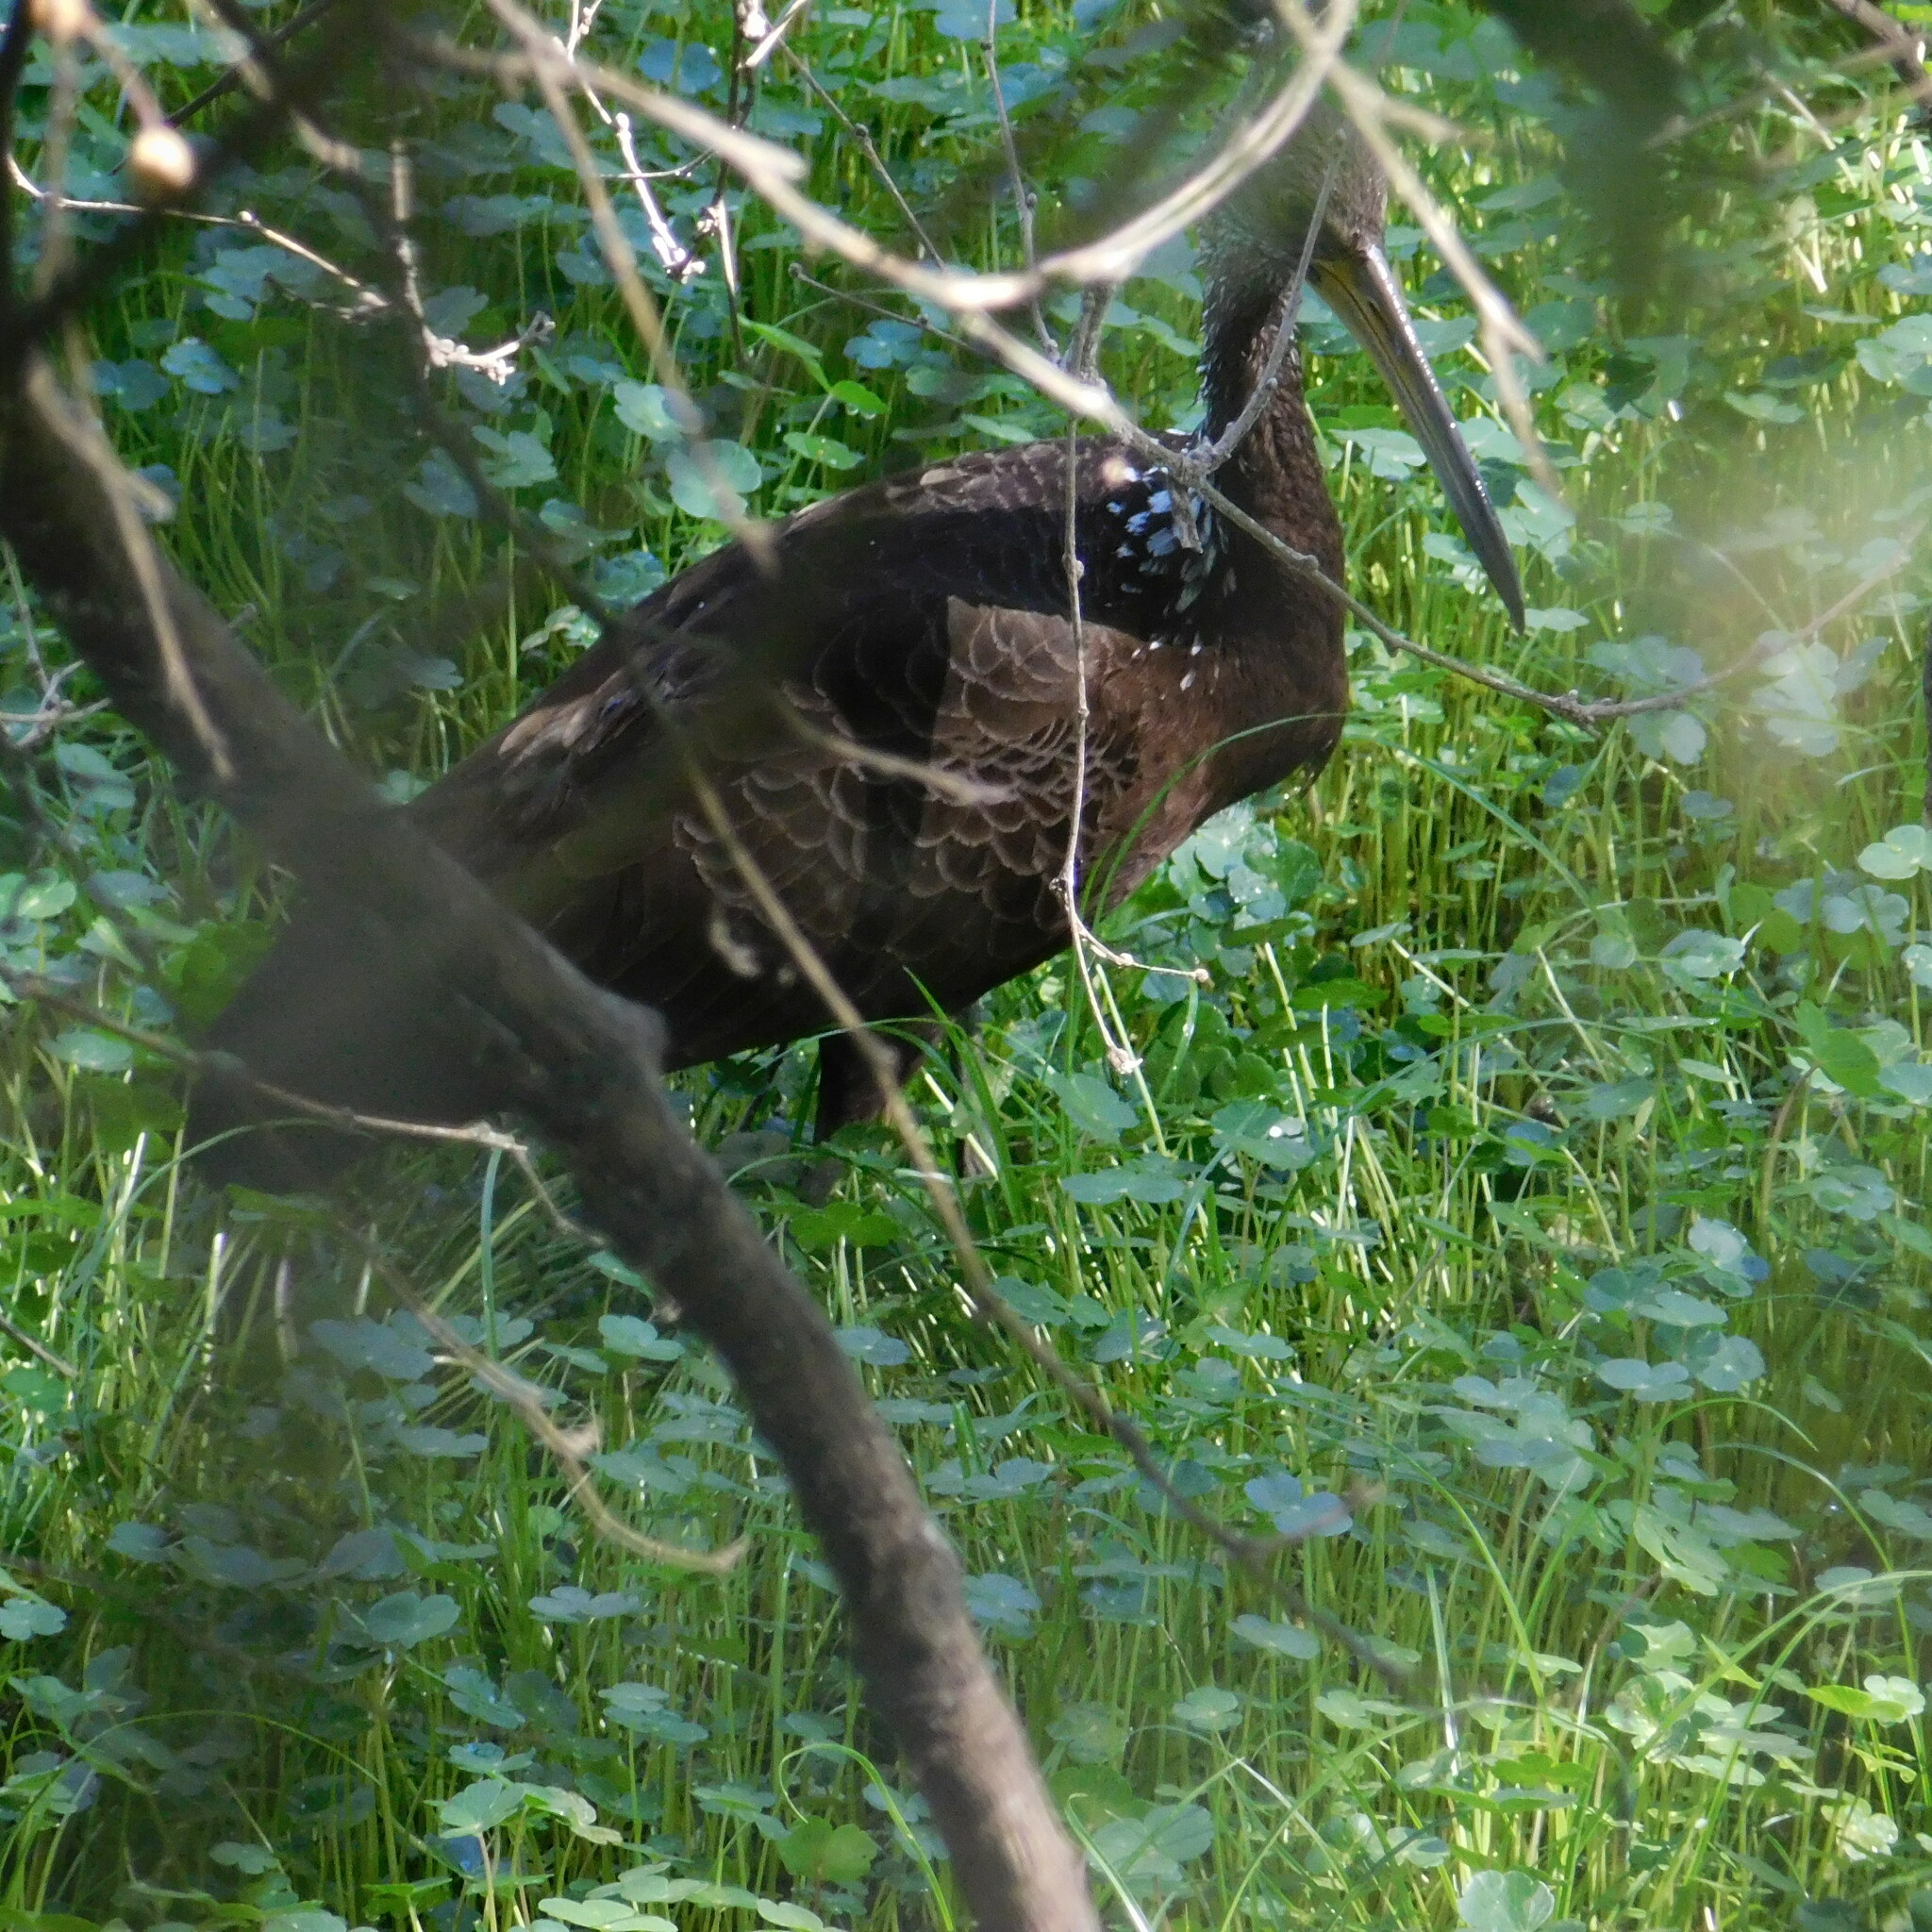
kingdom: Animalia
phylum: Chordata
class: Aves
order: Gruiformes
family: Aramidae
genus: Aramus
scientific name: Aramus guarauna
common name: Limpkin
